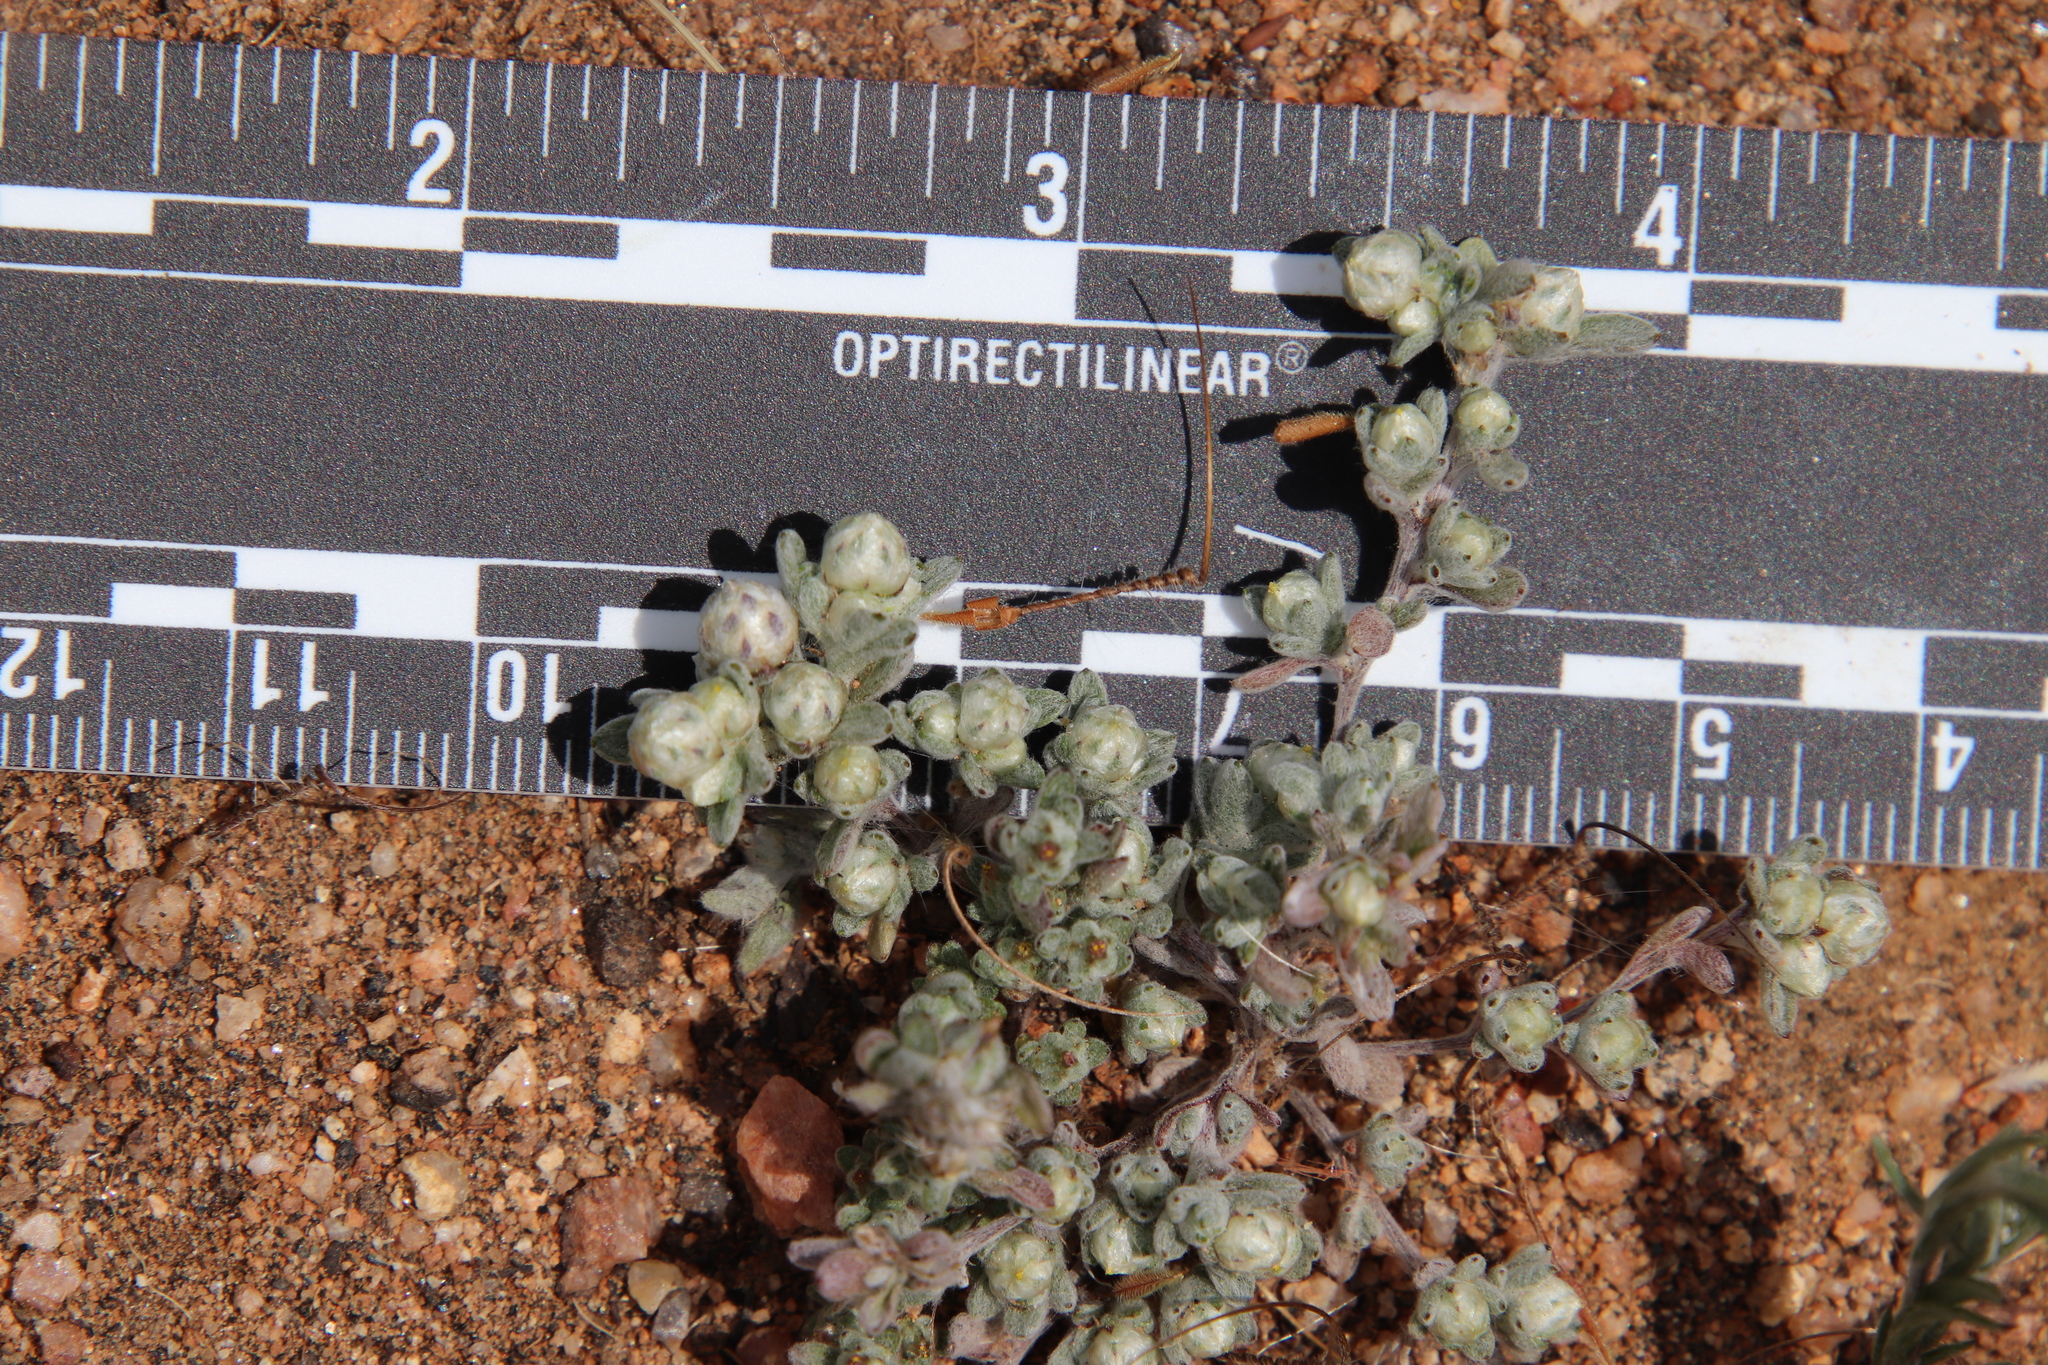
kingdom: Plantae
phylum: Tracheophyta
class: Magnoliopsida
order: Asterales
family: Asteraceae
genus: Stylocline
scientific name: Stylocline gnaphaloides
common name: Everlasting nest-straw
